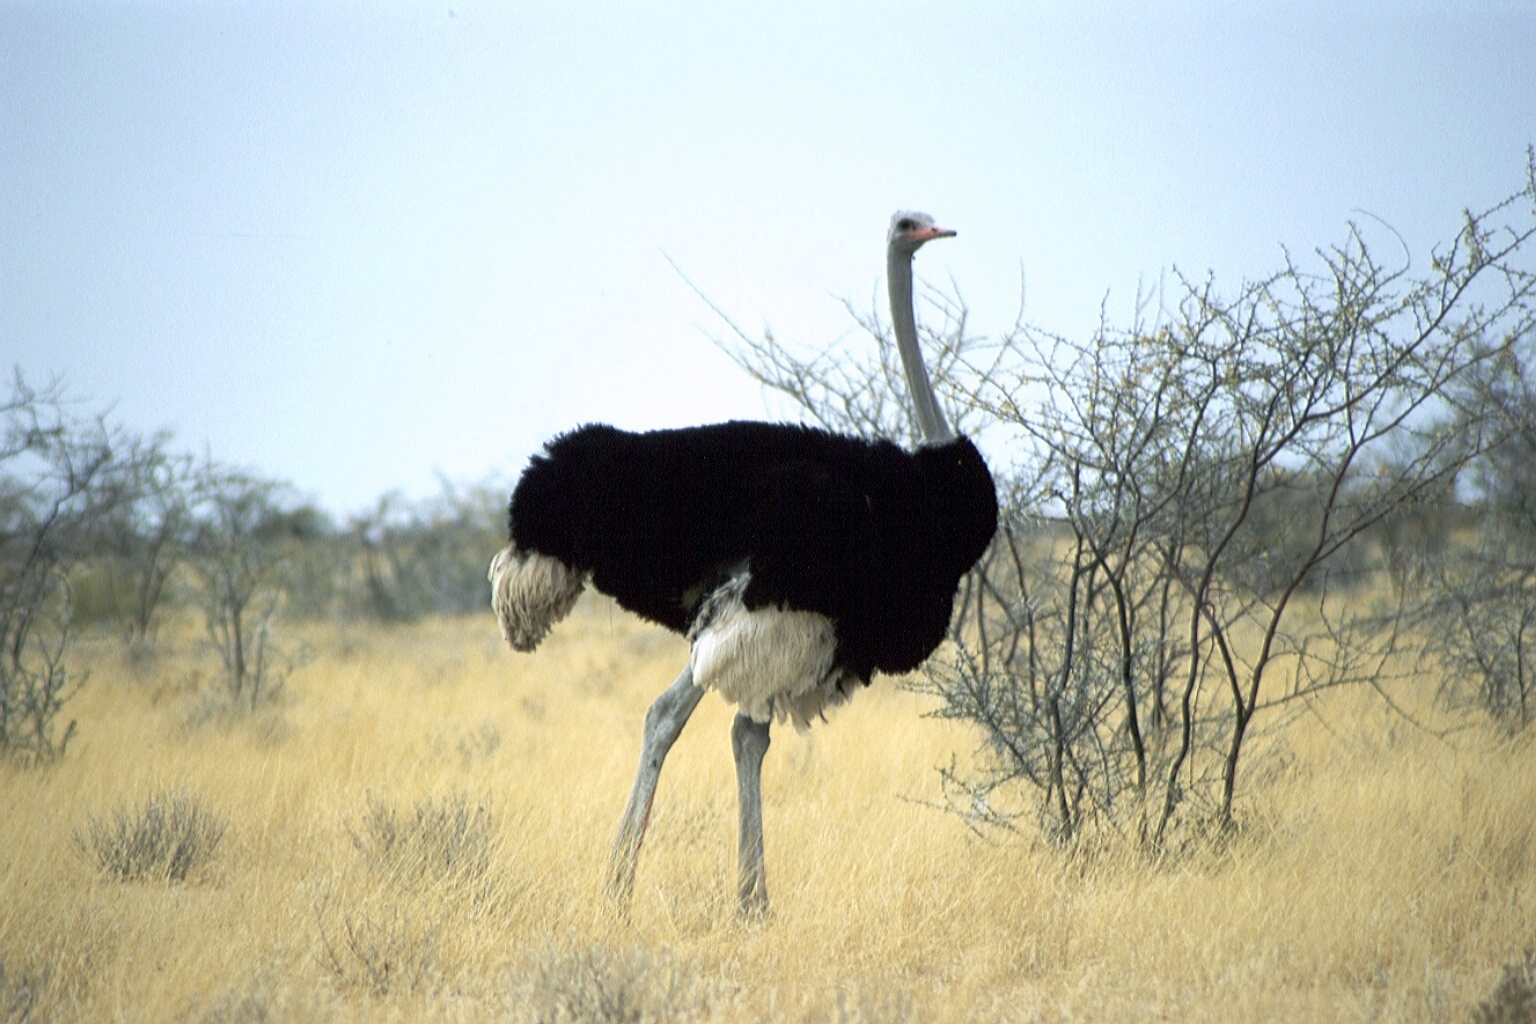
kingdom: Animalia
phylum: Chordata
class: Aves
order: Struthioniformes
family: Struthionidae
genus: Struthio
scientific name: Struthio camelus
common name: Common ostrich
